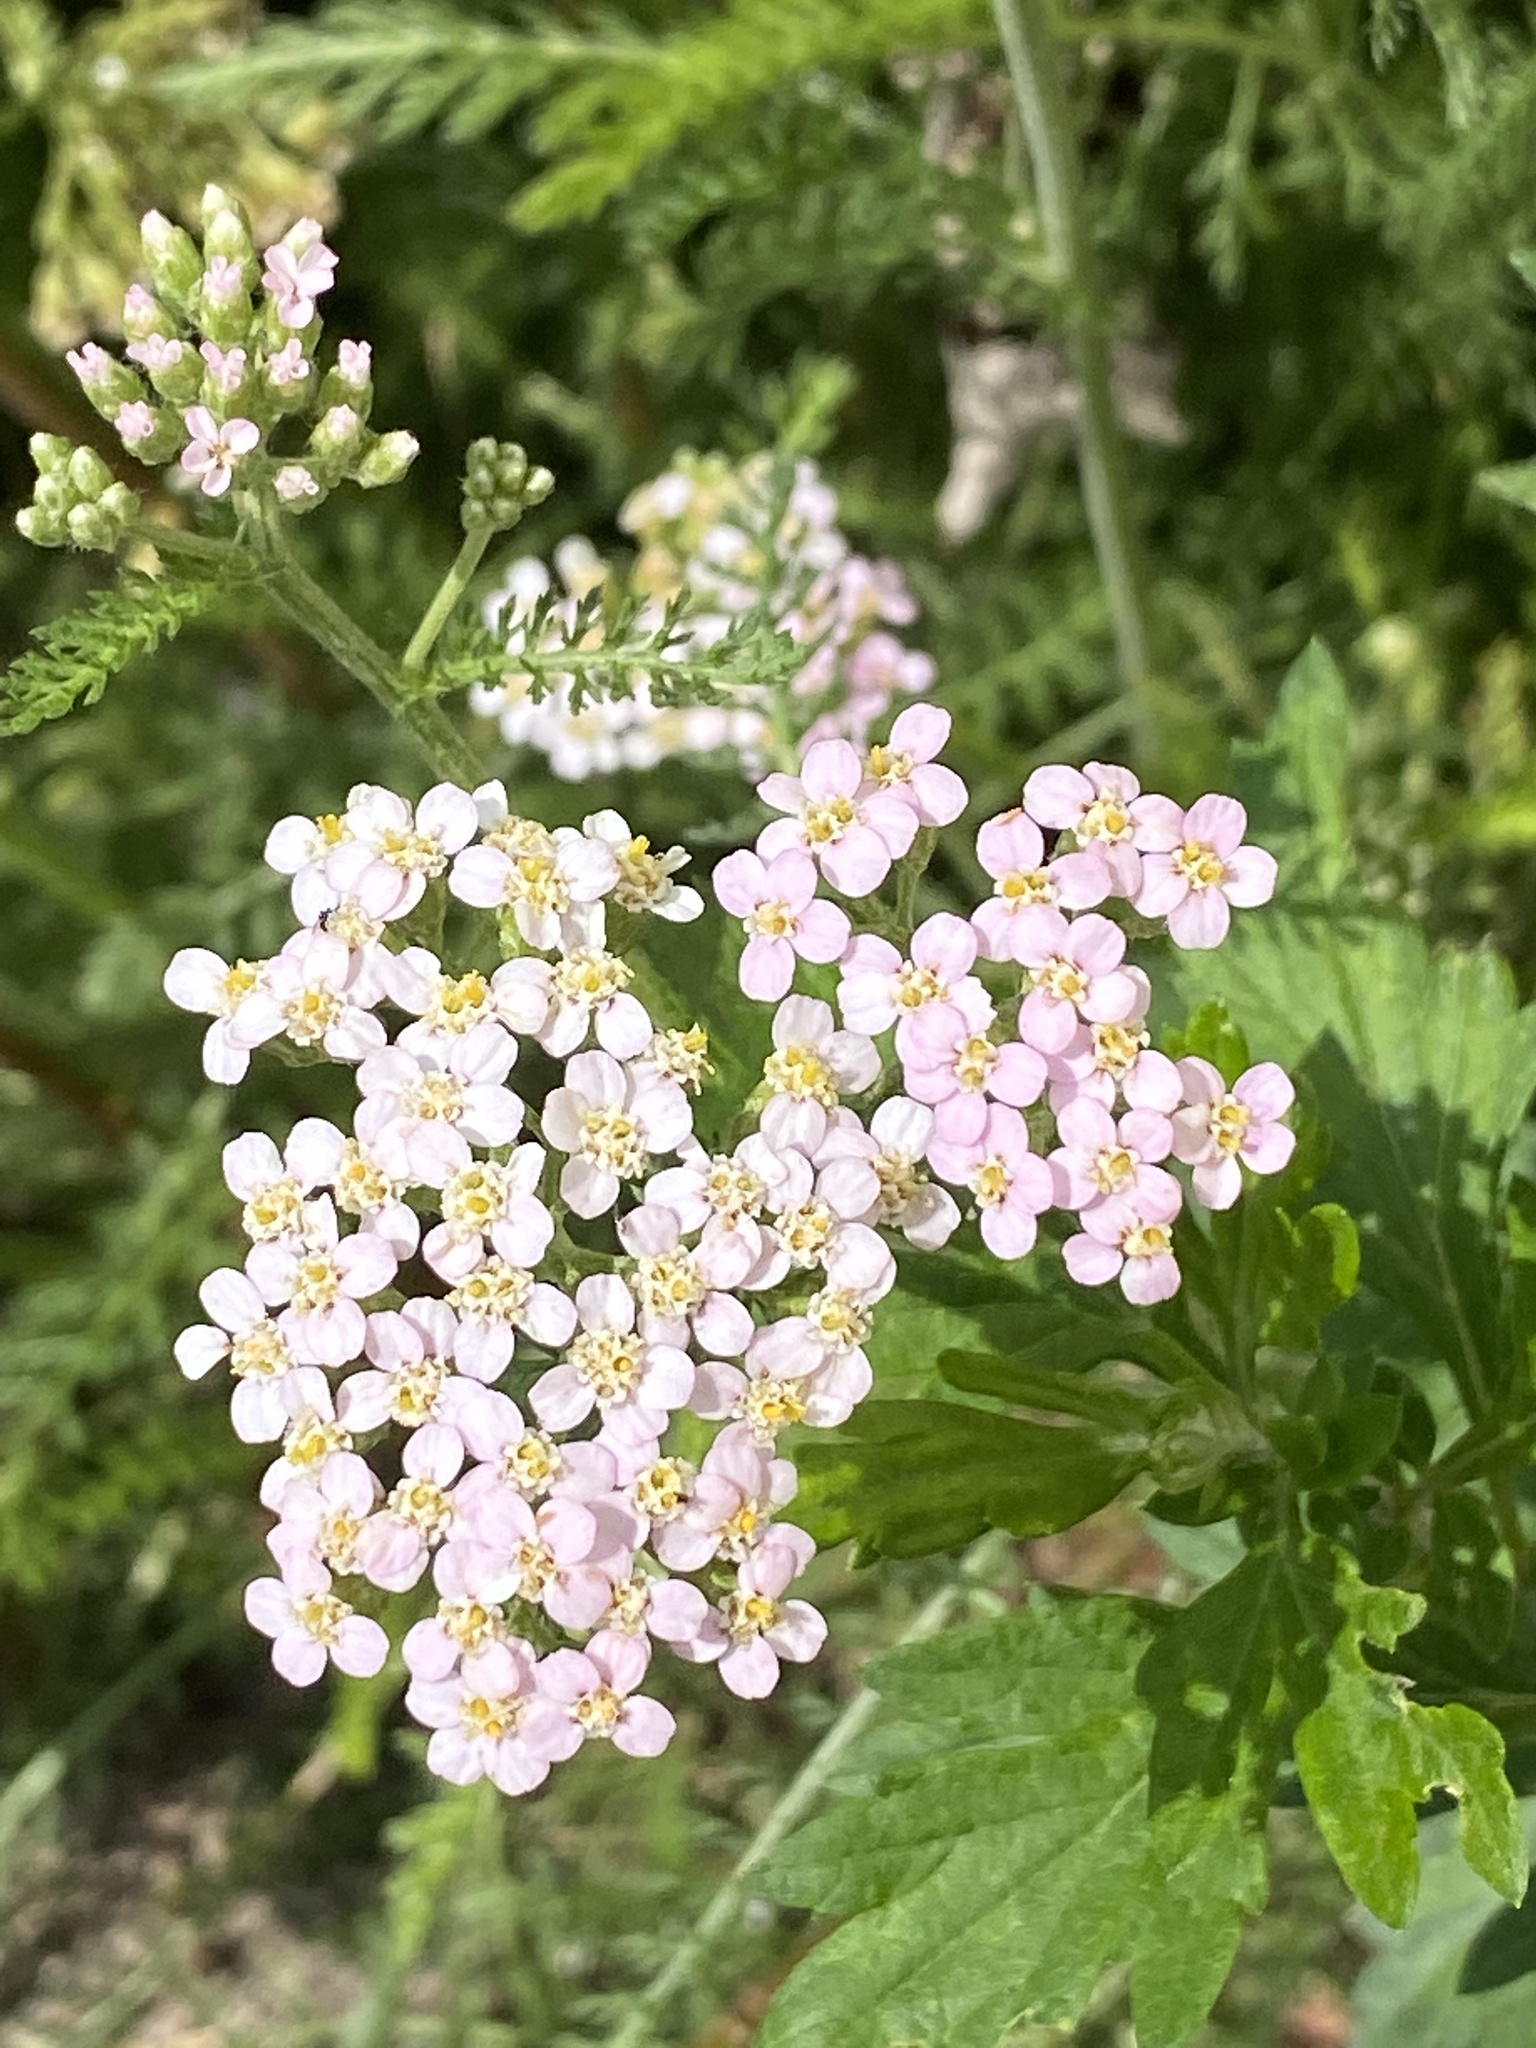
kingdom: Plantae
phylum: Tracheophyta
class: Magnoliopsida
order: Asterales
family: Asteraceae
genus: Achillea
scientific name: Achillea millefolium
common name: Yarrow
